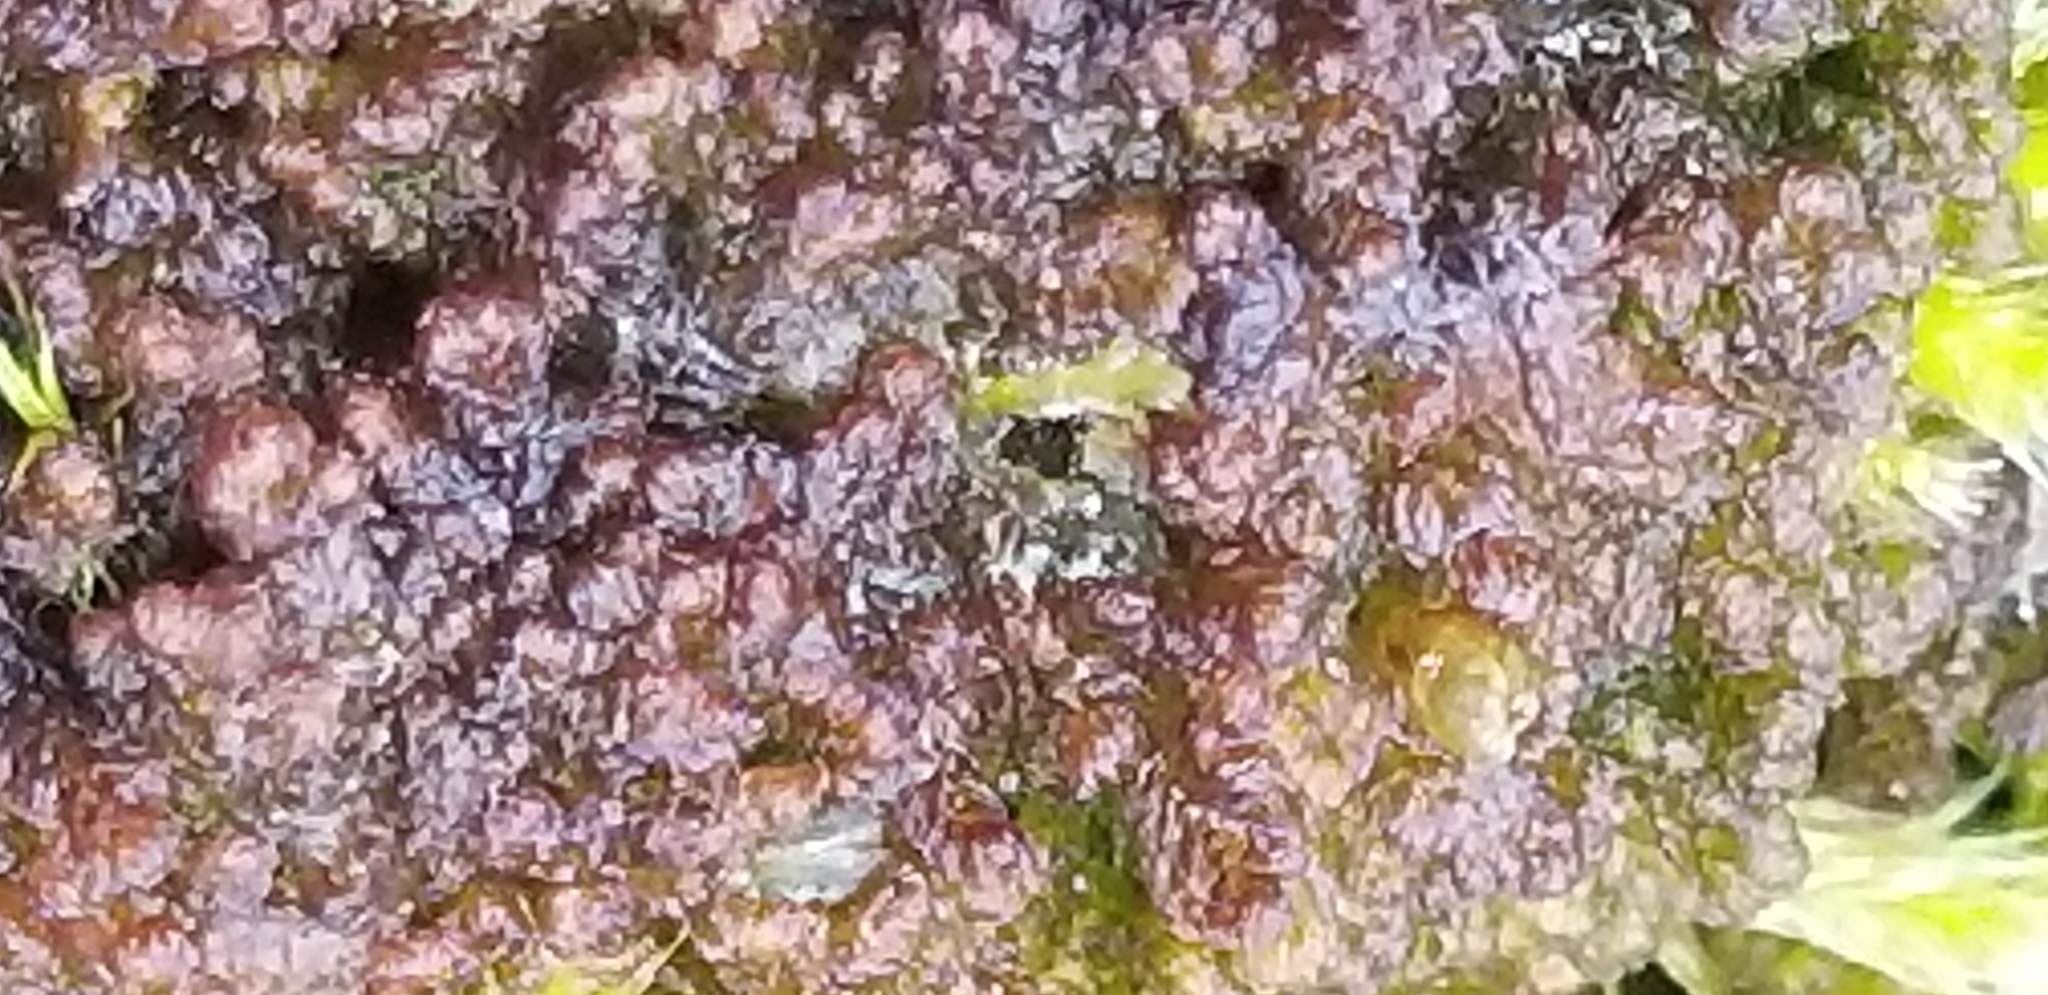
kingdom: Plantae
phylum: Marchantiophyta
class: Jungermanniopsida
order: Ptilidiales
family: Ptilidiaceae
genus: Ptilidium
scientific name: Ptilidium pulcherrimum
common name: Tree fringewort
